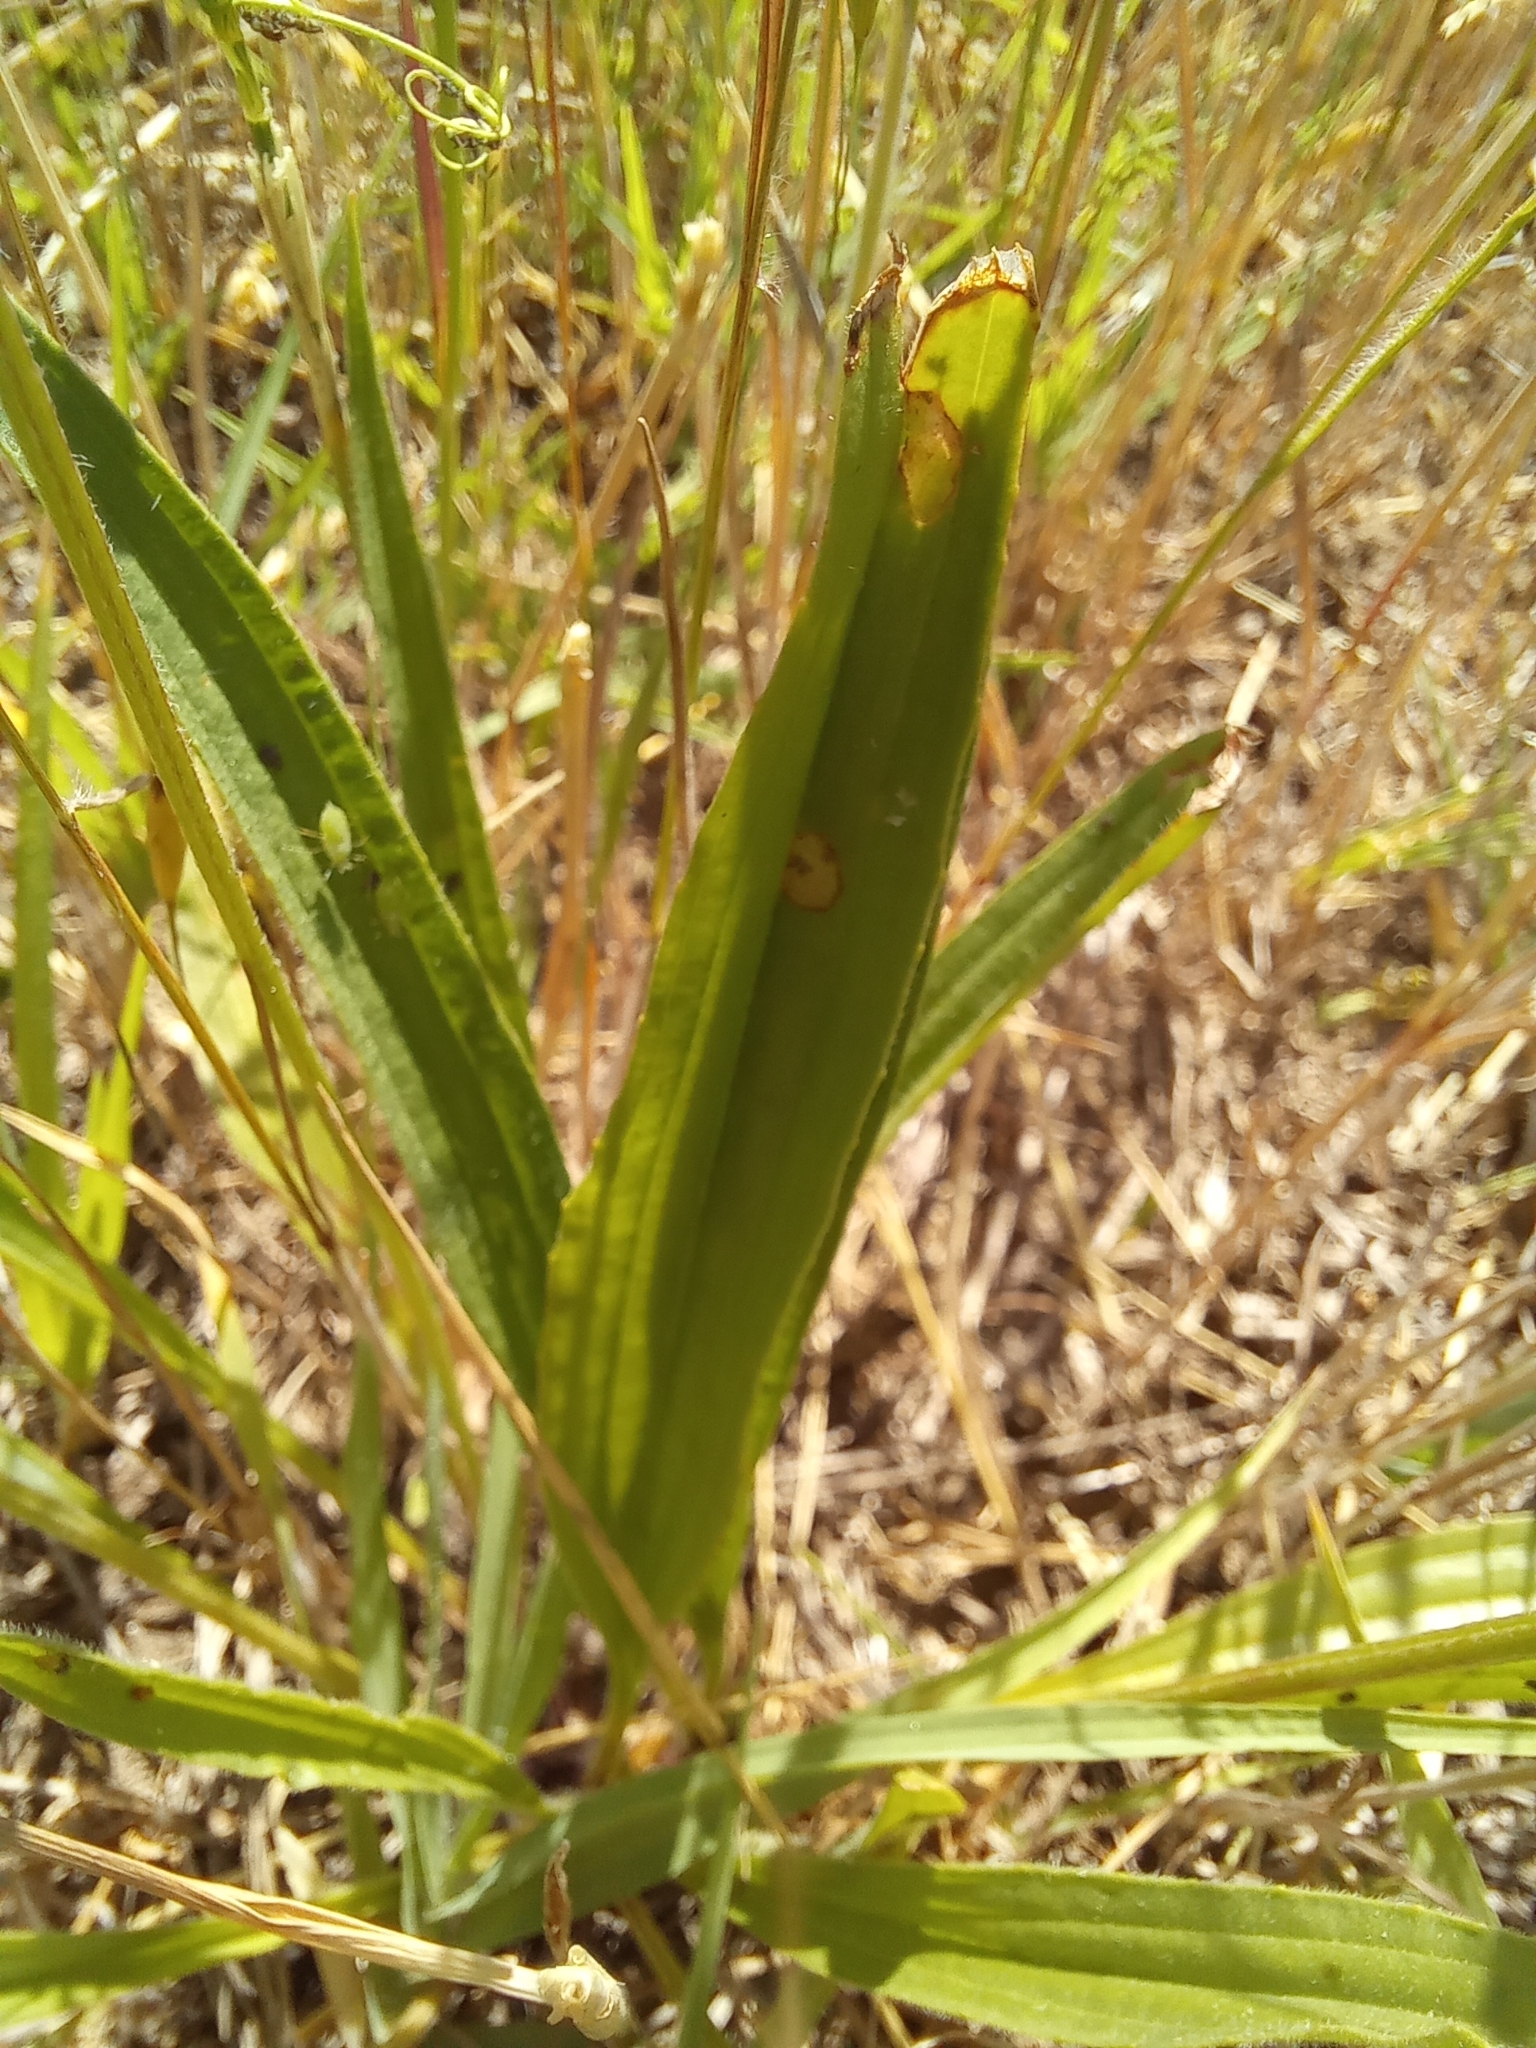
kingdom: Plantae
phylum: Tracheophyta
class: Magnoliopsida
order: Lamiales
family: Plantaginaceae
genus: Plantago
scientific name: Plantago lanceolata
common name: Ribwort plantain
